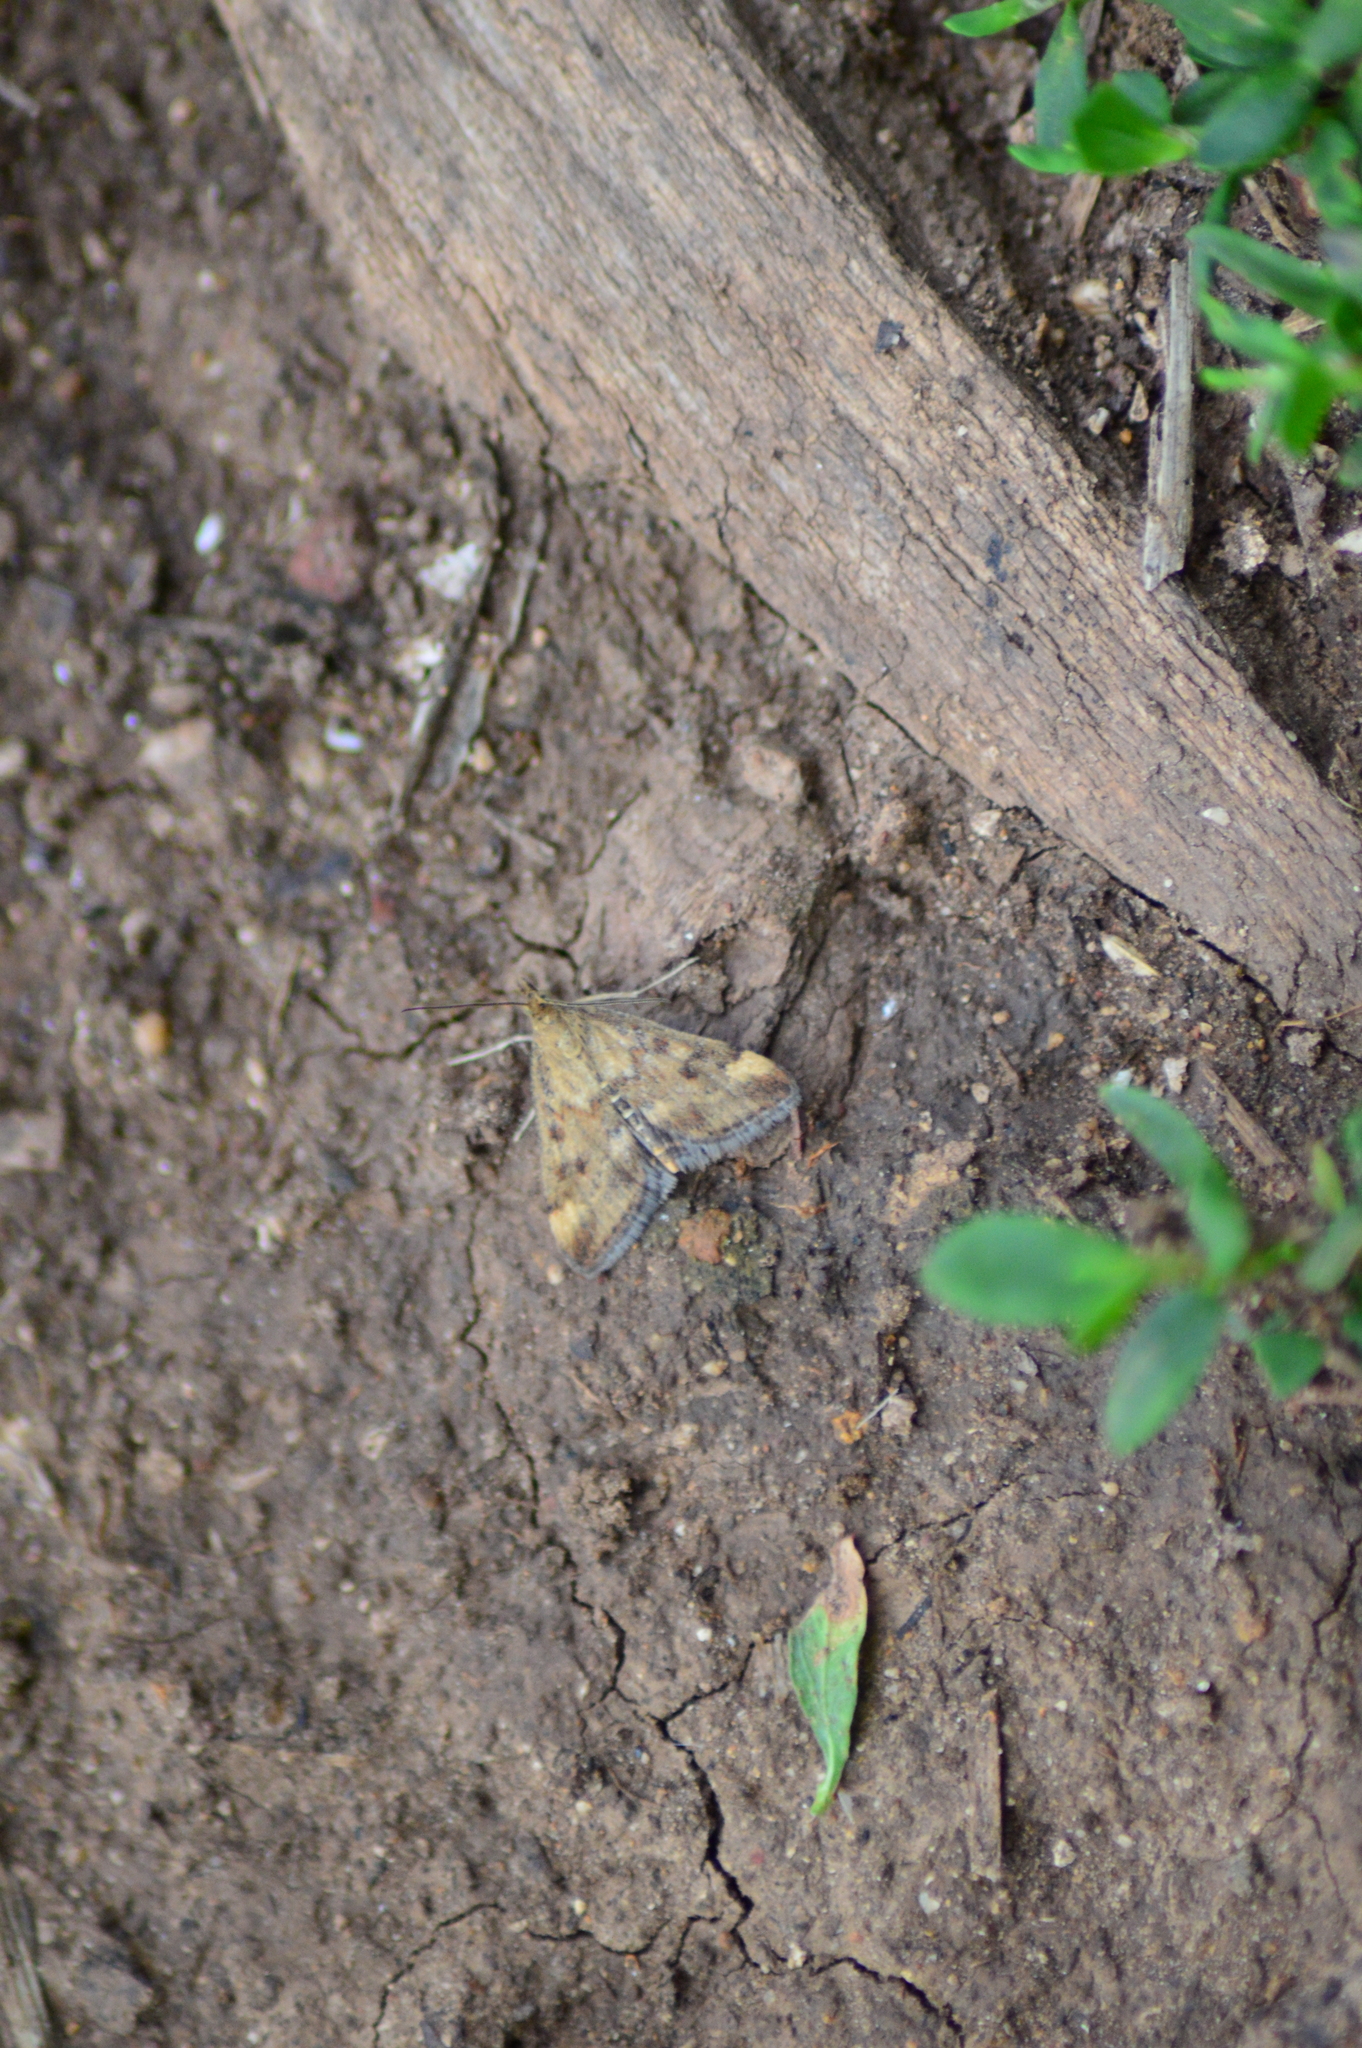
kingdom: Animalia
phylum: Arthropoda
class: Insecta
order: Lepidoptera
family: Crambidae
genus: Pyrausta
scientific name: Pyrausta despicata
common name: Straw-barred pearl
